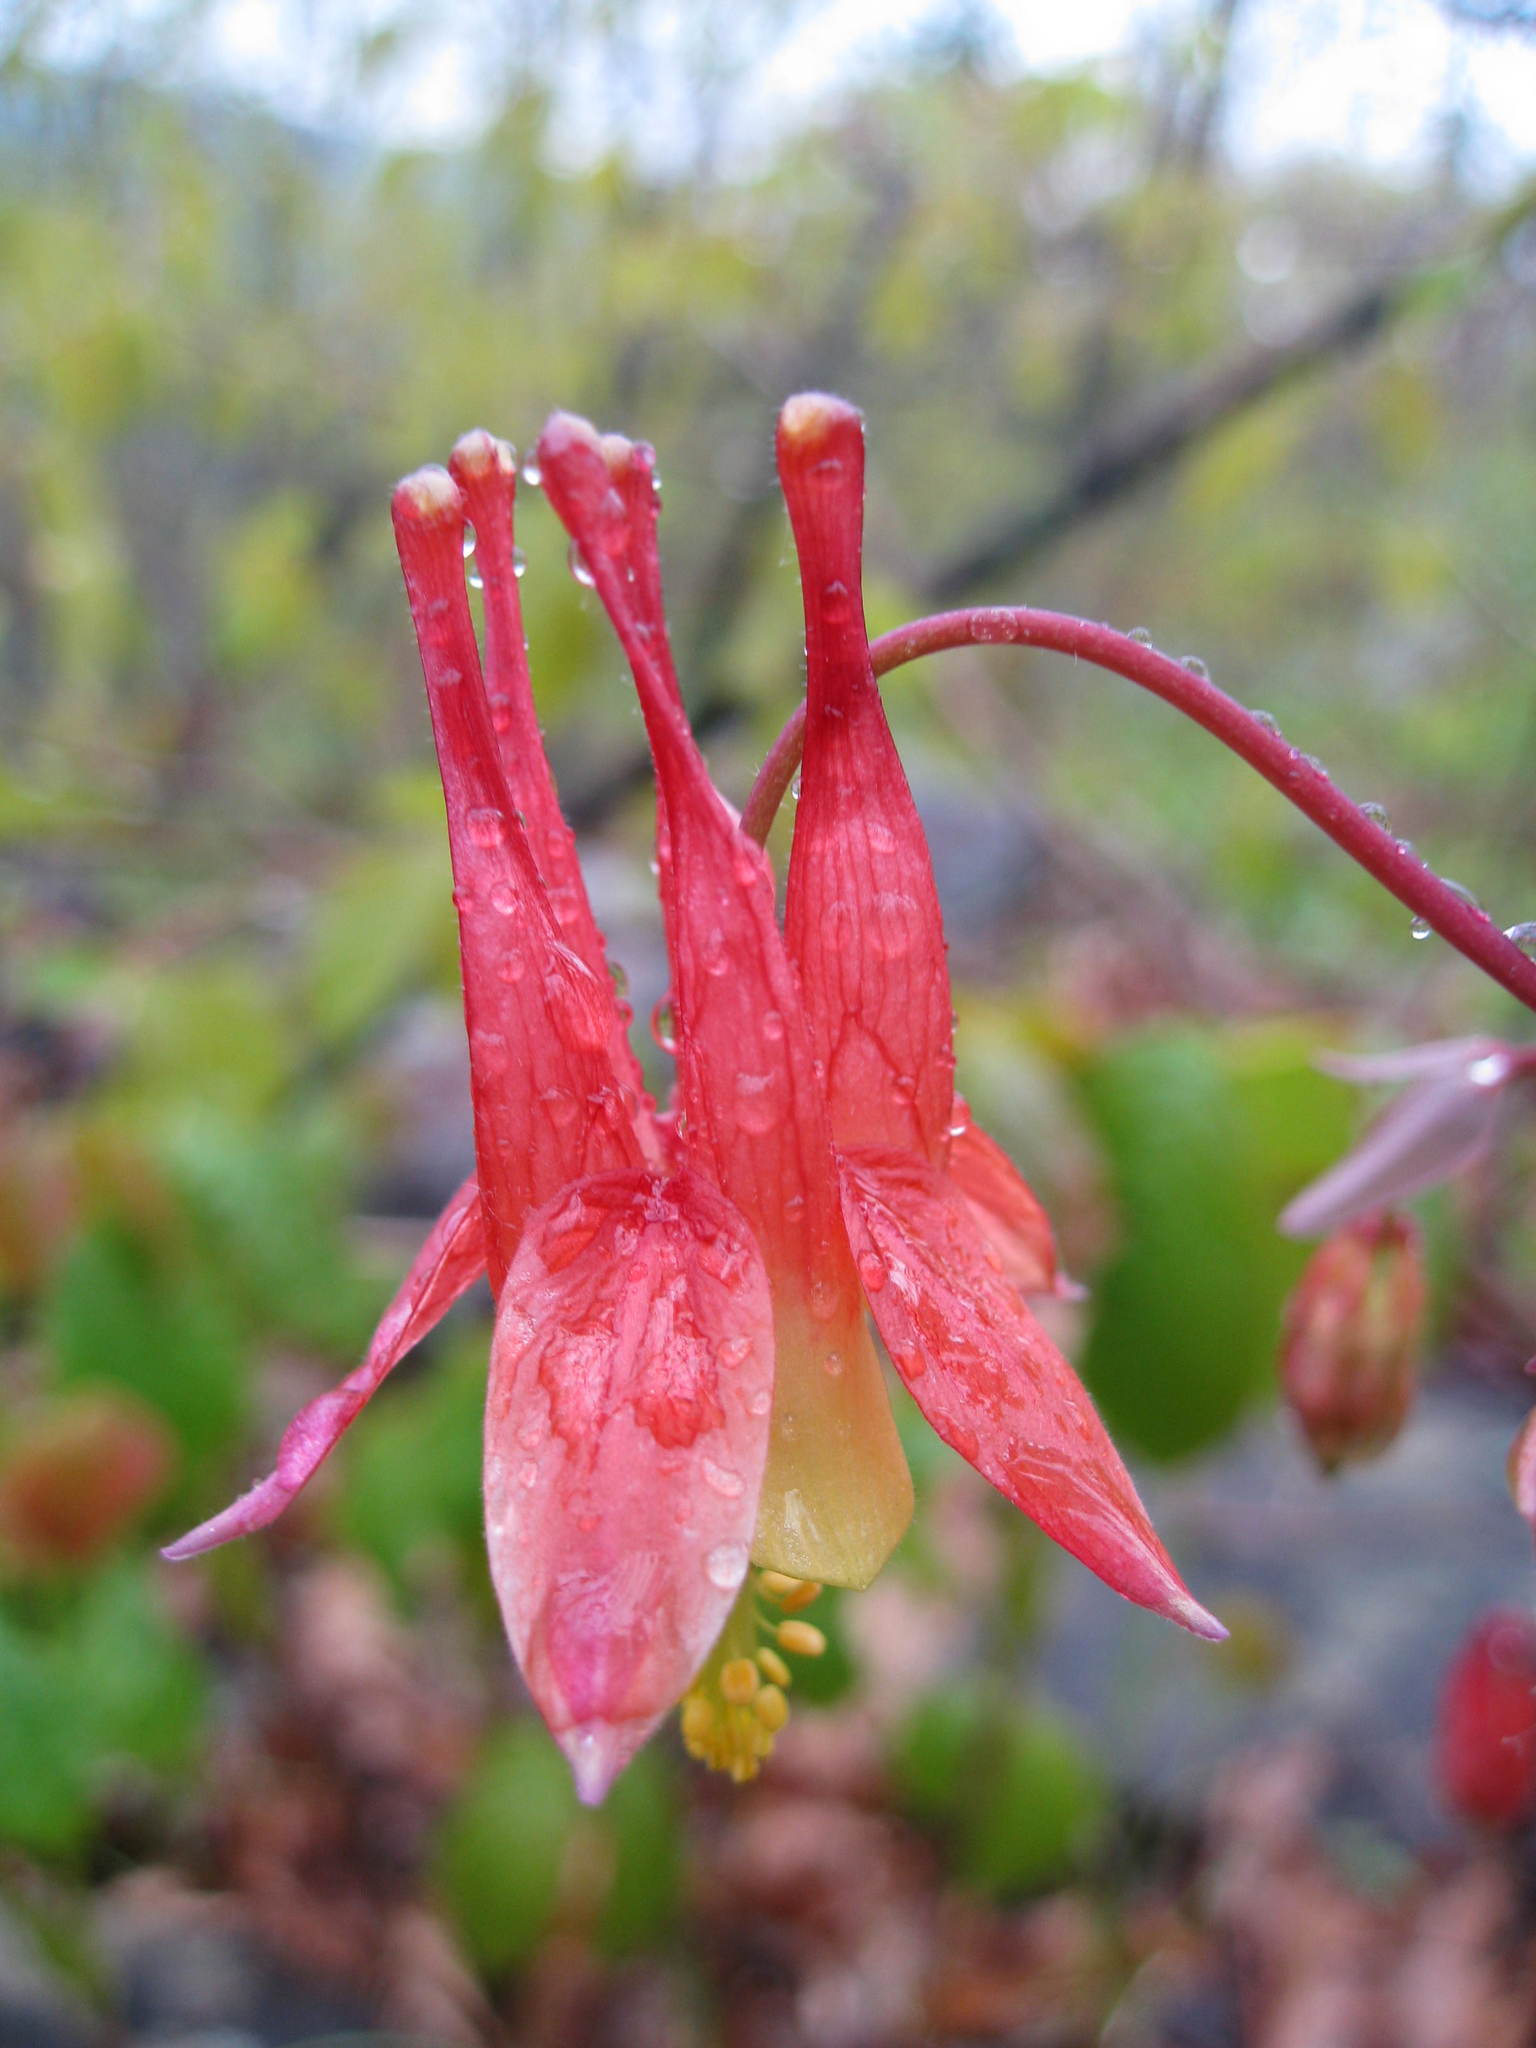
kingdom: Plantae
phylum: Tracheophyta
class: Magnoliopsida
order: Ranunculales
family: Ranunculaceae
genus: Aquilegia
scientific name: Aquilegia canadensis
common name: American columbine
